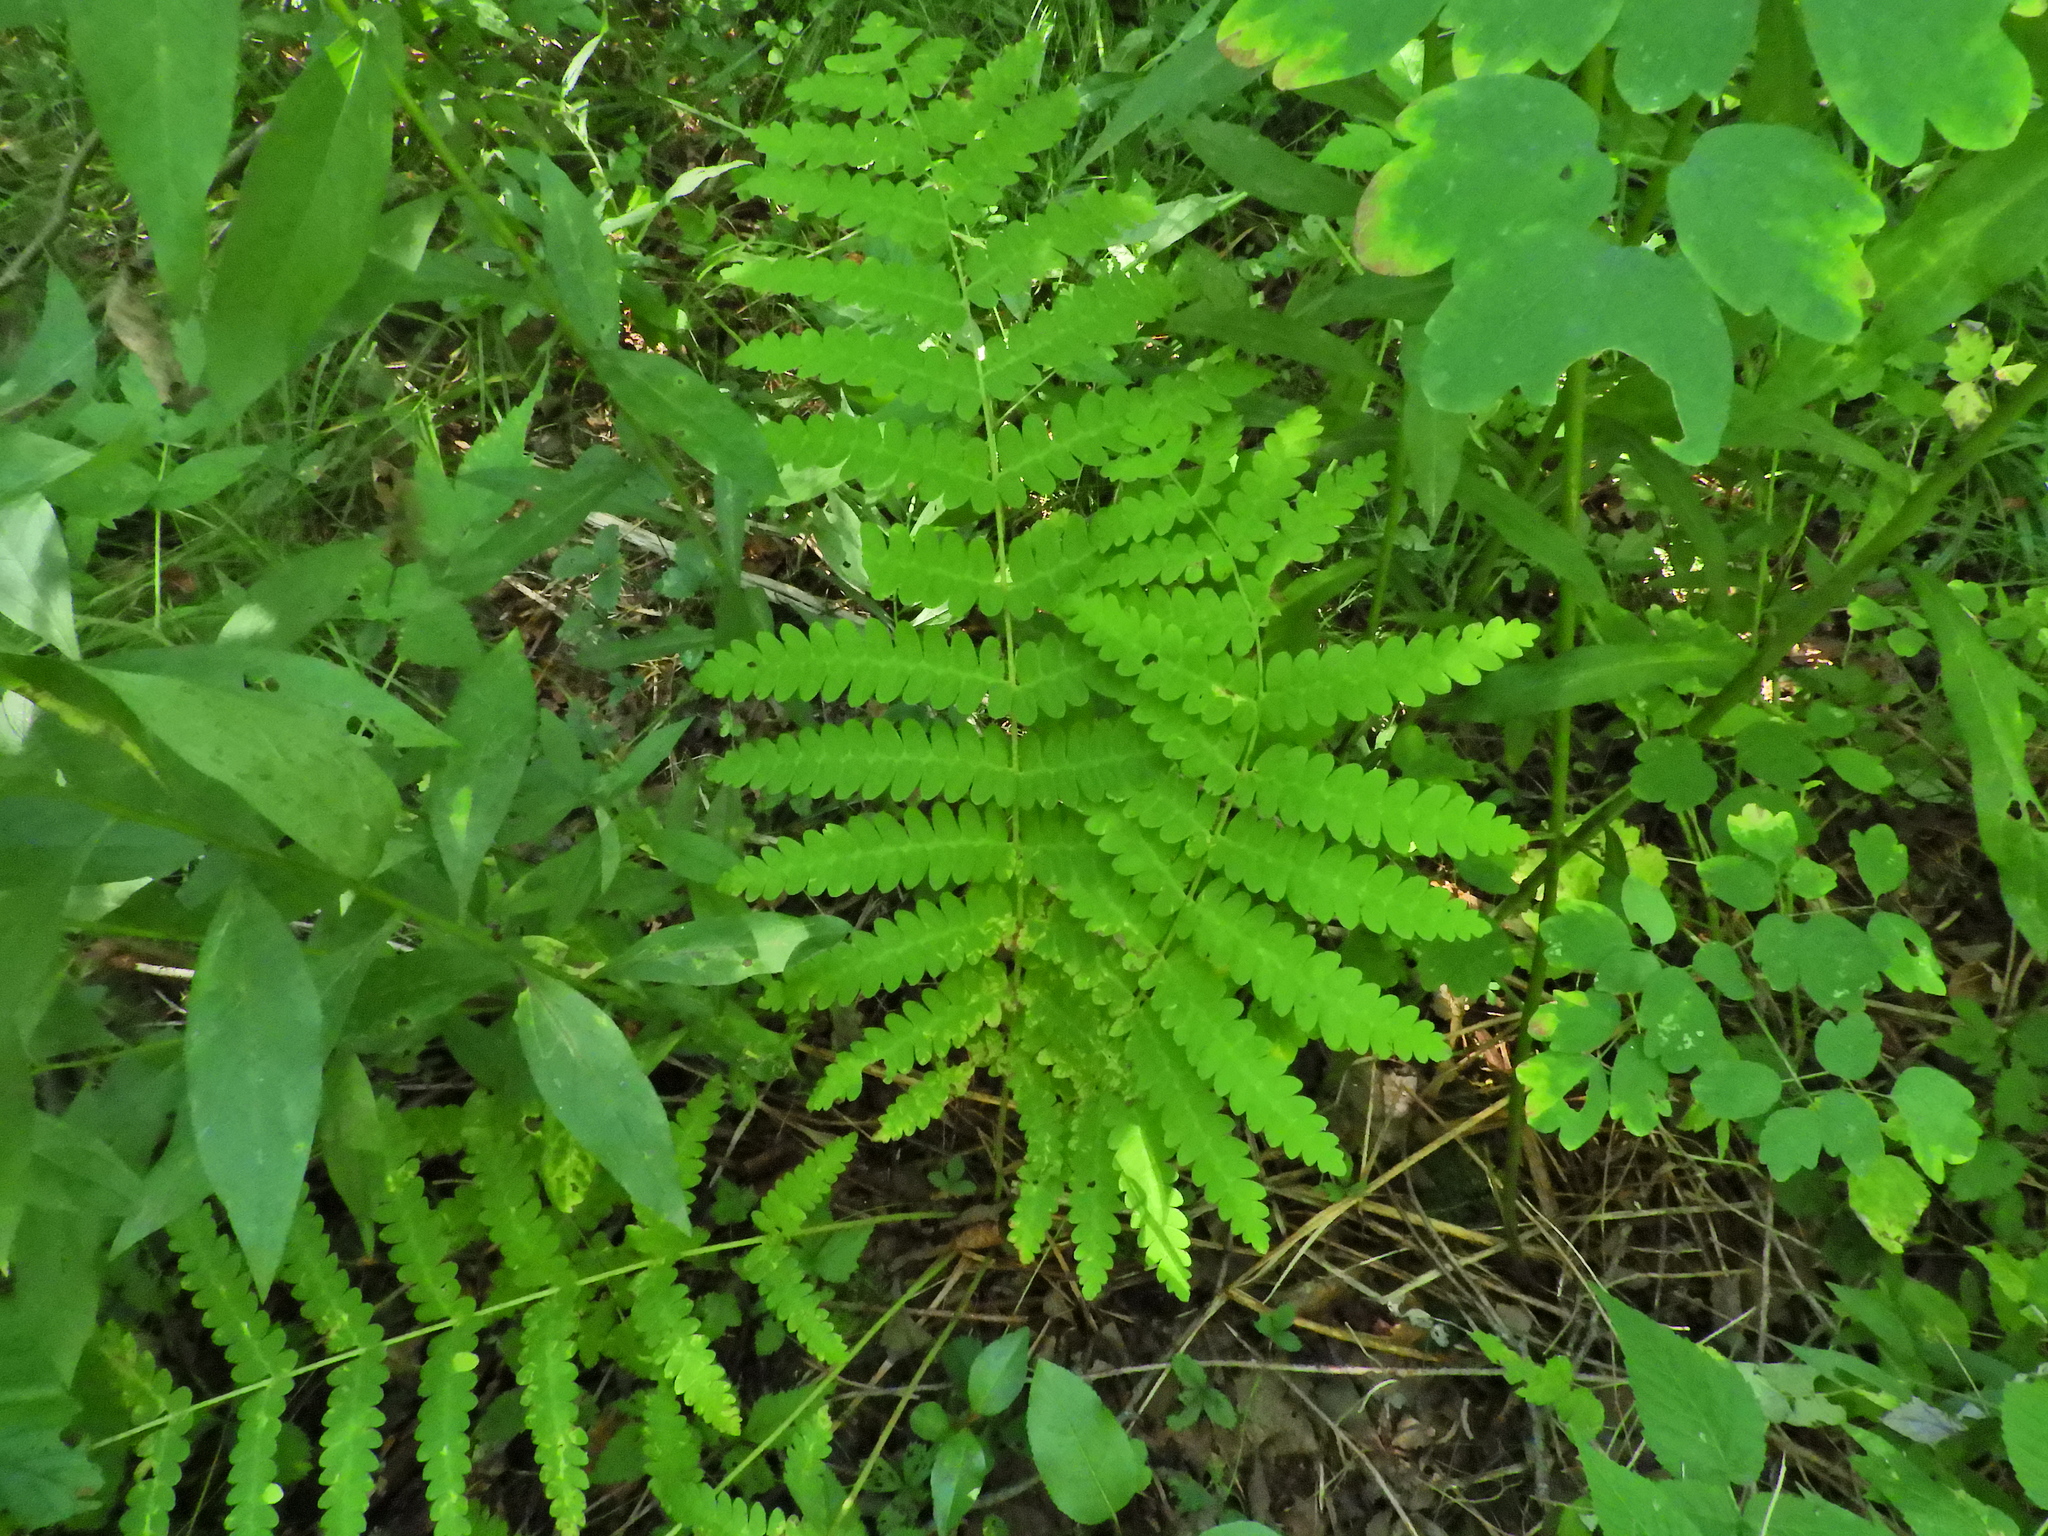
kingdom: Plantae
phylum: Tracheophyta
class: Polypodiopsida
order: Osmundales
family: Osmundaceae
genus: Claytosmunda
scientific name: Claytosmunda claytoniana
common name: Clayton's fern
